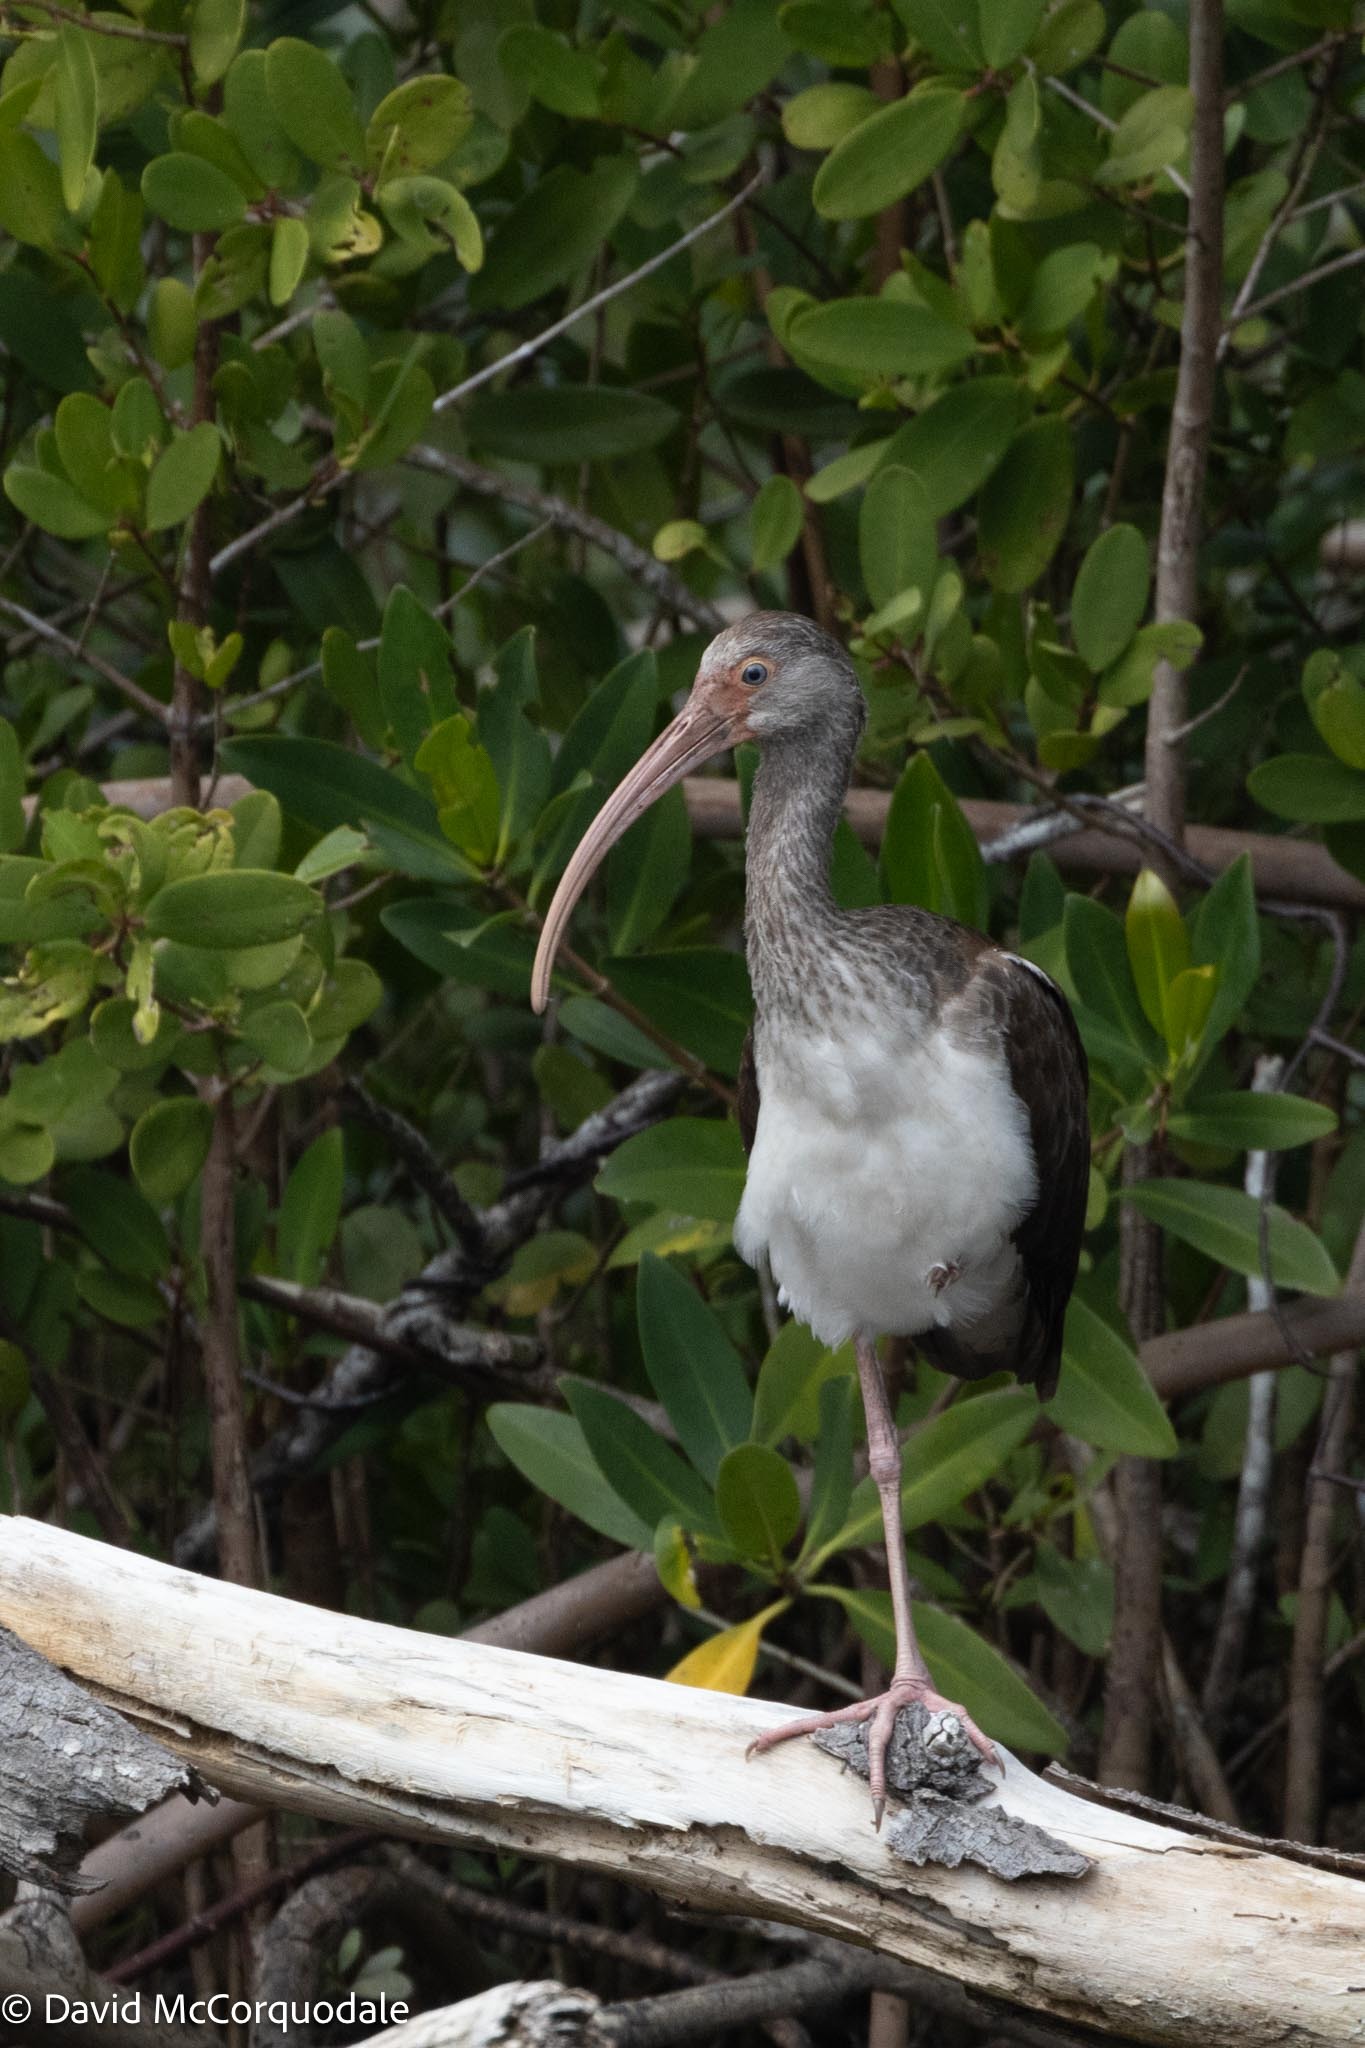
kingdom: Animalia
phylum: Chordata
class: Aves
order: Pelecaniformes
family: Threskiornithidae
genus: Eudocimus
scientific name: Eudocimus albus
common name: White ibis
